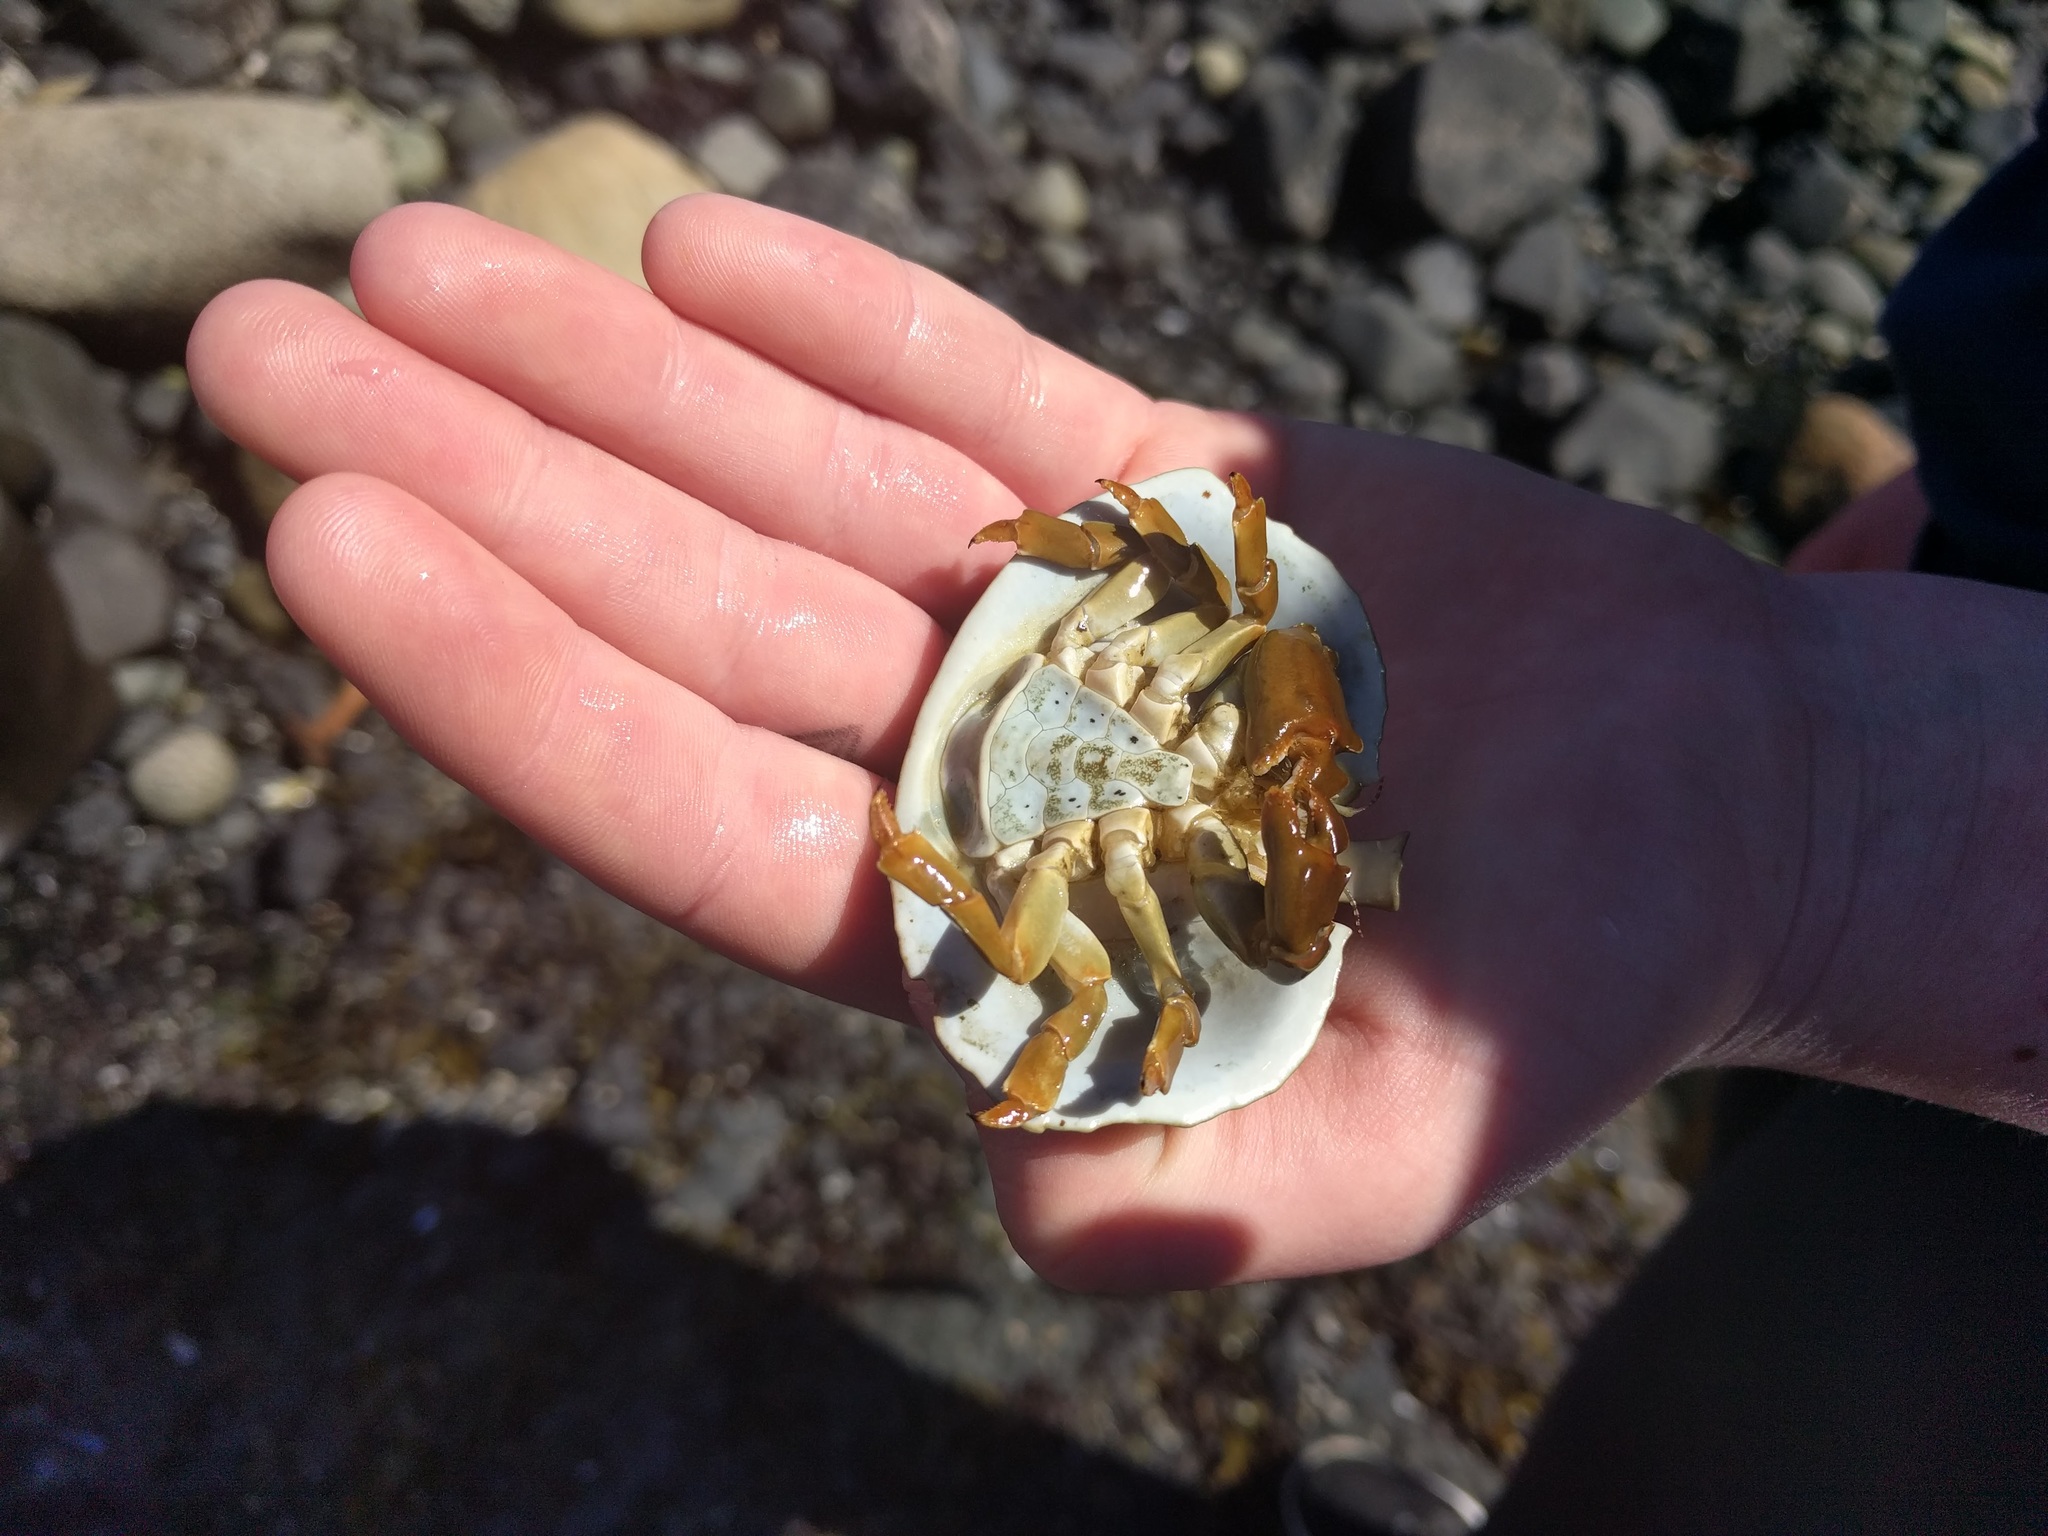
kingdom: Animalia
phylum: Arthropoda
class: Malacostraca
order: Decapoda
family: Lithodidae
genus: Cryptolithodes
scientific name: Cryptolithodes sitchensis
